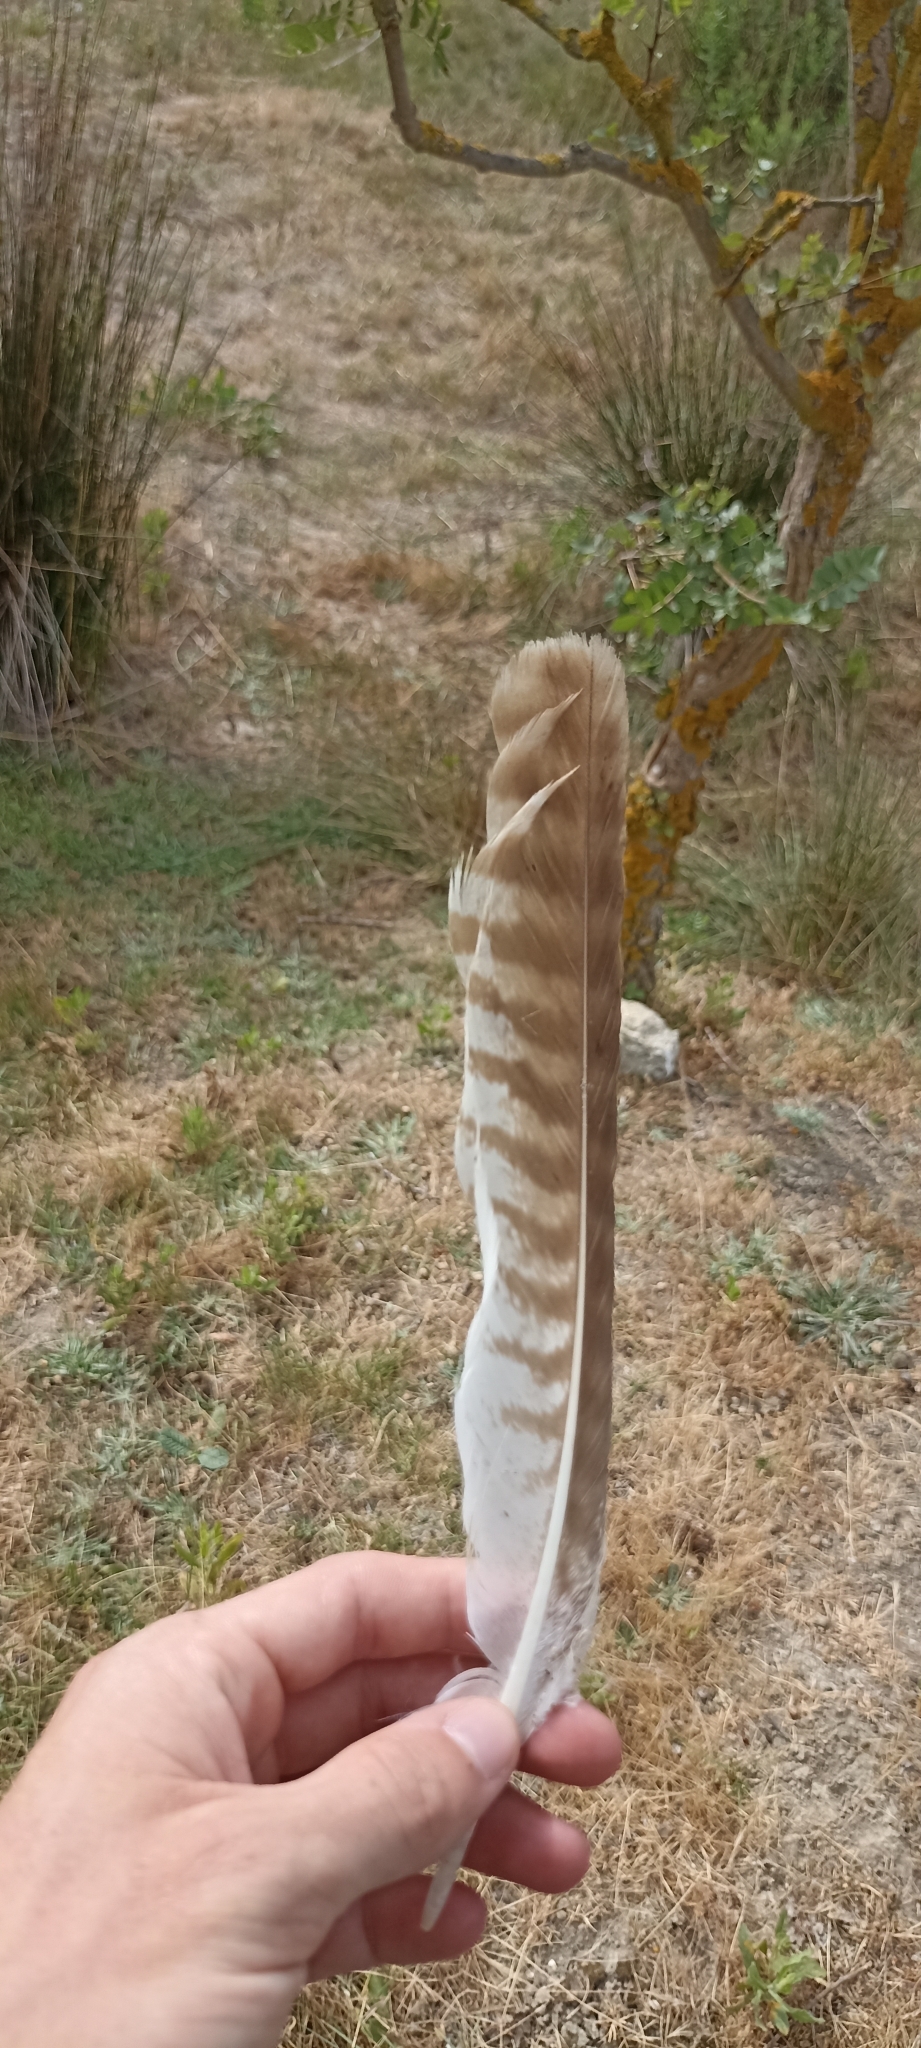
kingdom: Animalia
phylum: Chordata
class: Aves
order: Accipitriformes
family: Accipitridae
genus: Buteo
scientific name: Buteo buteo
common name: Common buzzard
